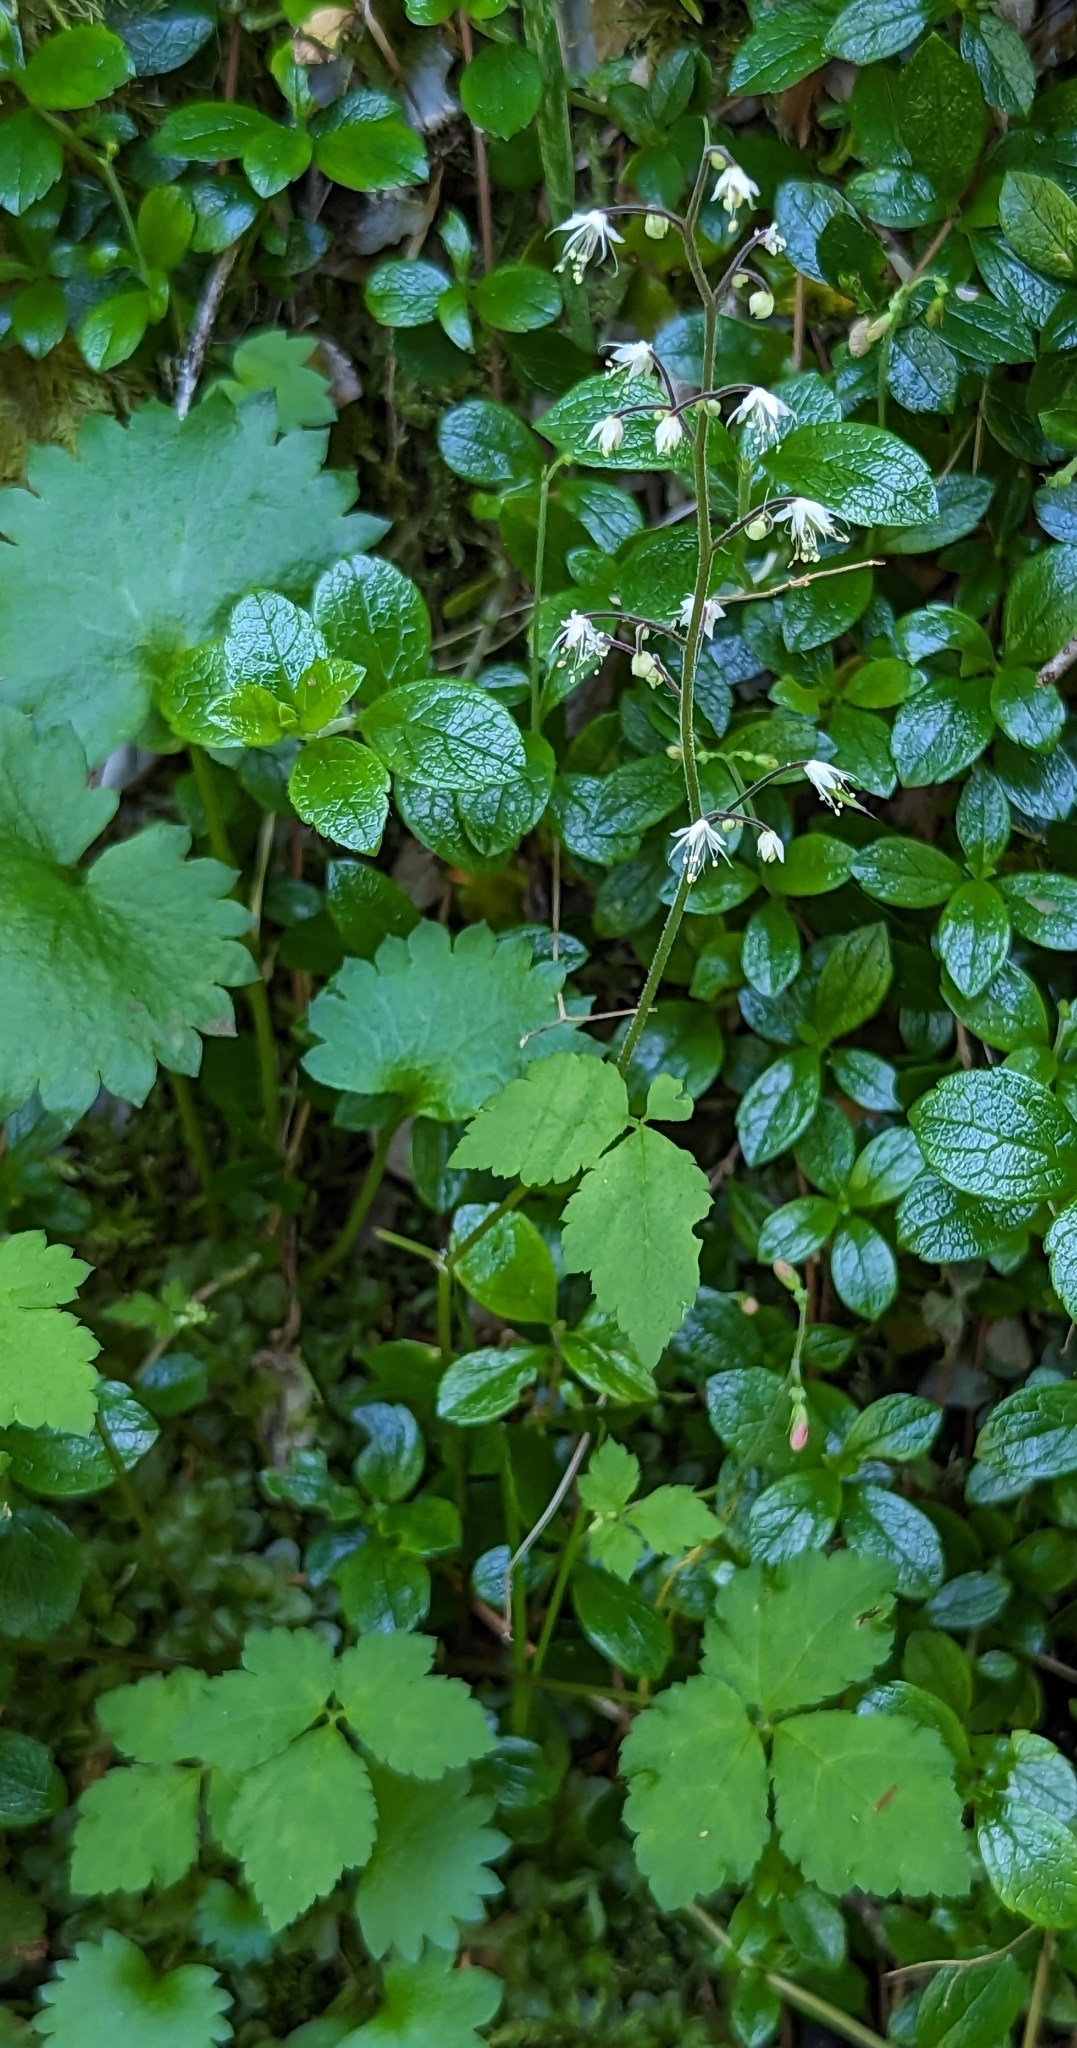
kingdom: Plantae
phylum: Tracheophyta
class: Magnoliopsida
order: Saxifragales
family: Saxifragaceae
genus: Tiarella
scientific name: Tiarella trifoliata
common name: Sugar-scoop
